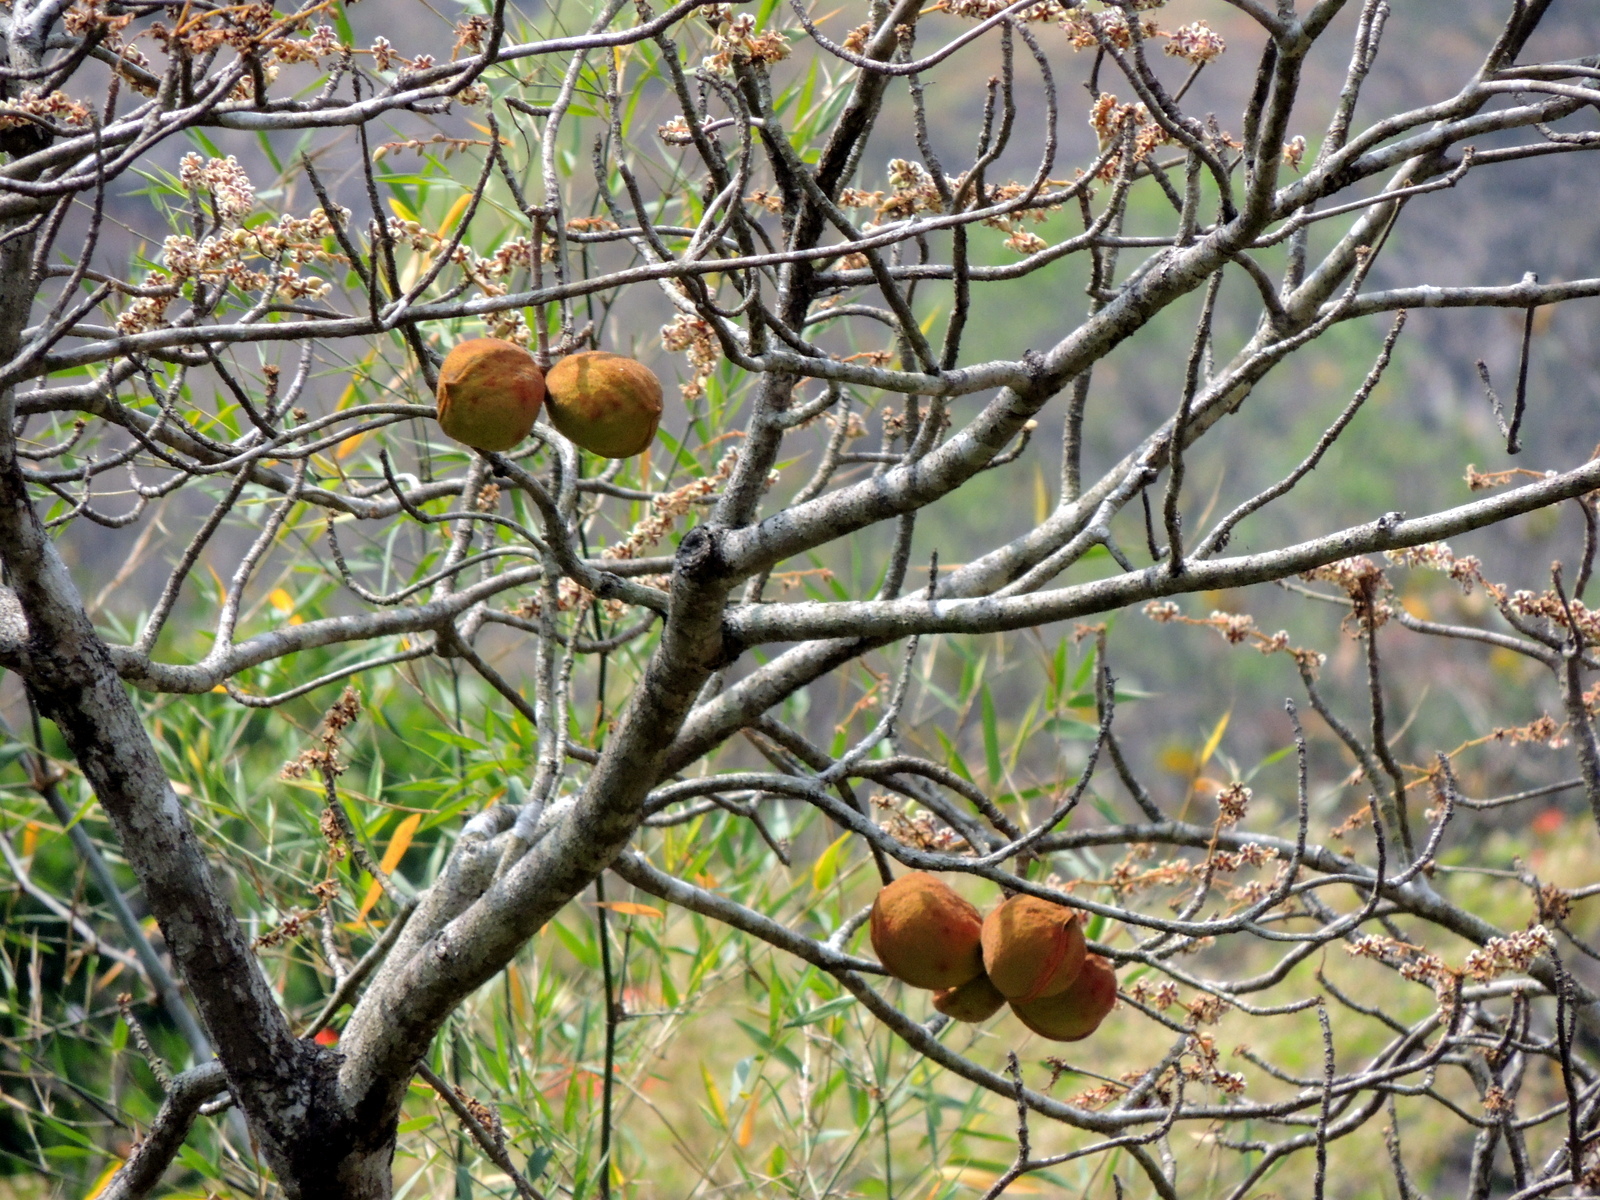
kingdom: Plantae
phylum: Tracheophyta
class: Magnoliopsida
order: Malvales
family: Malvaceae
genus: Sterculia
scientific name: Sterculia guttata
